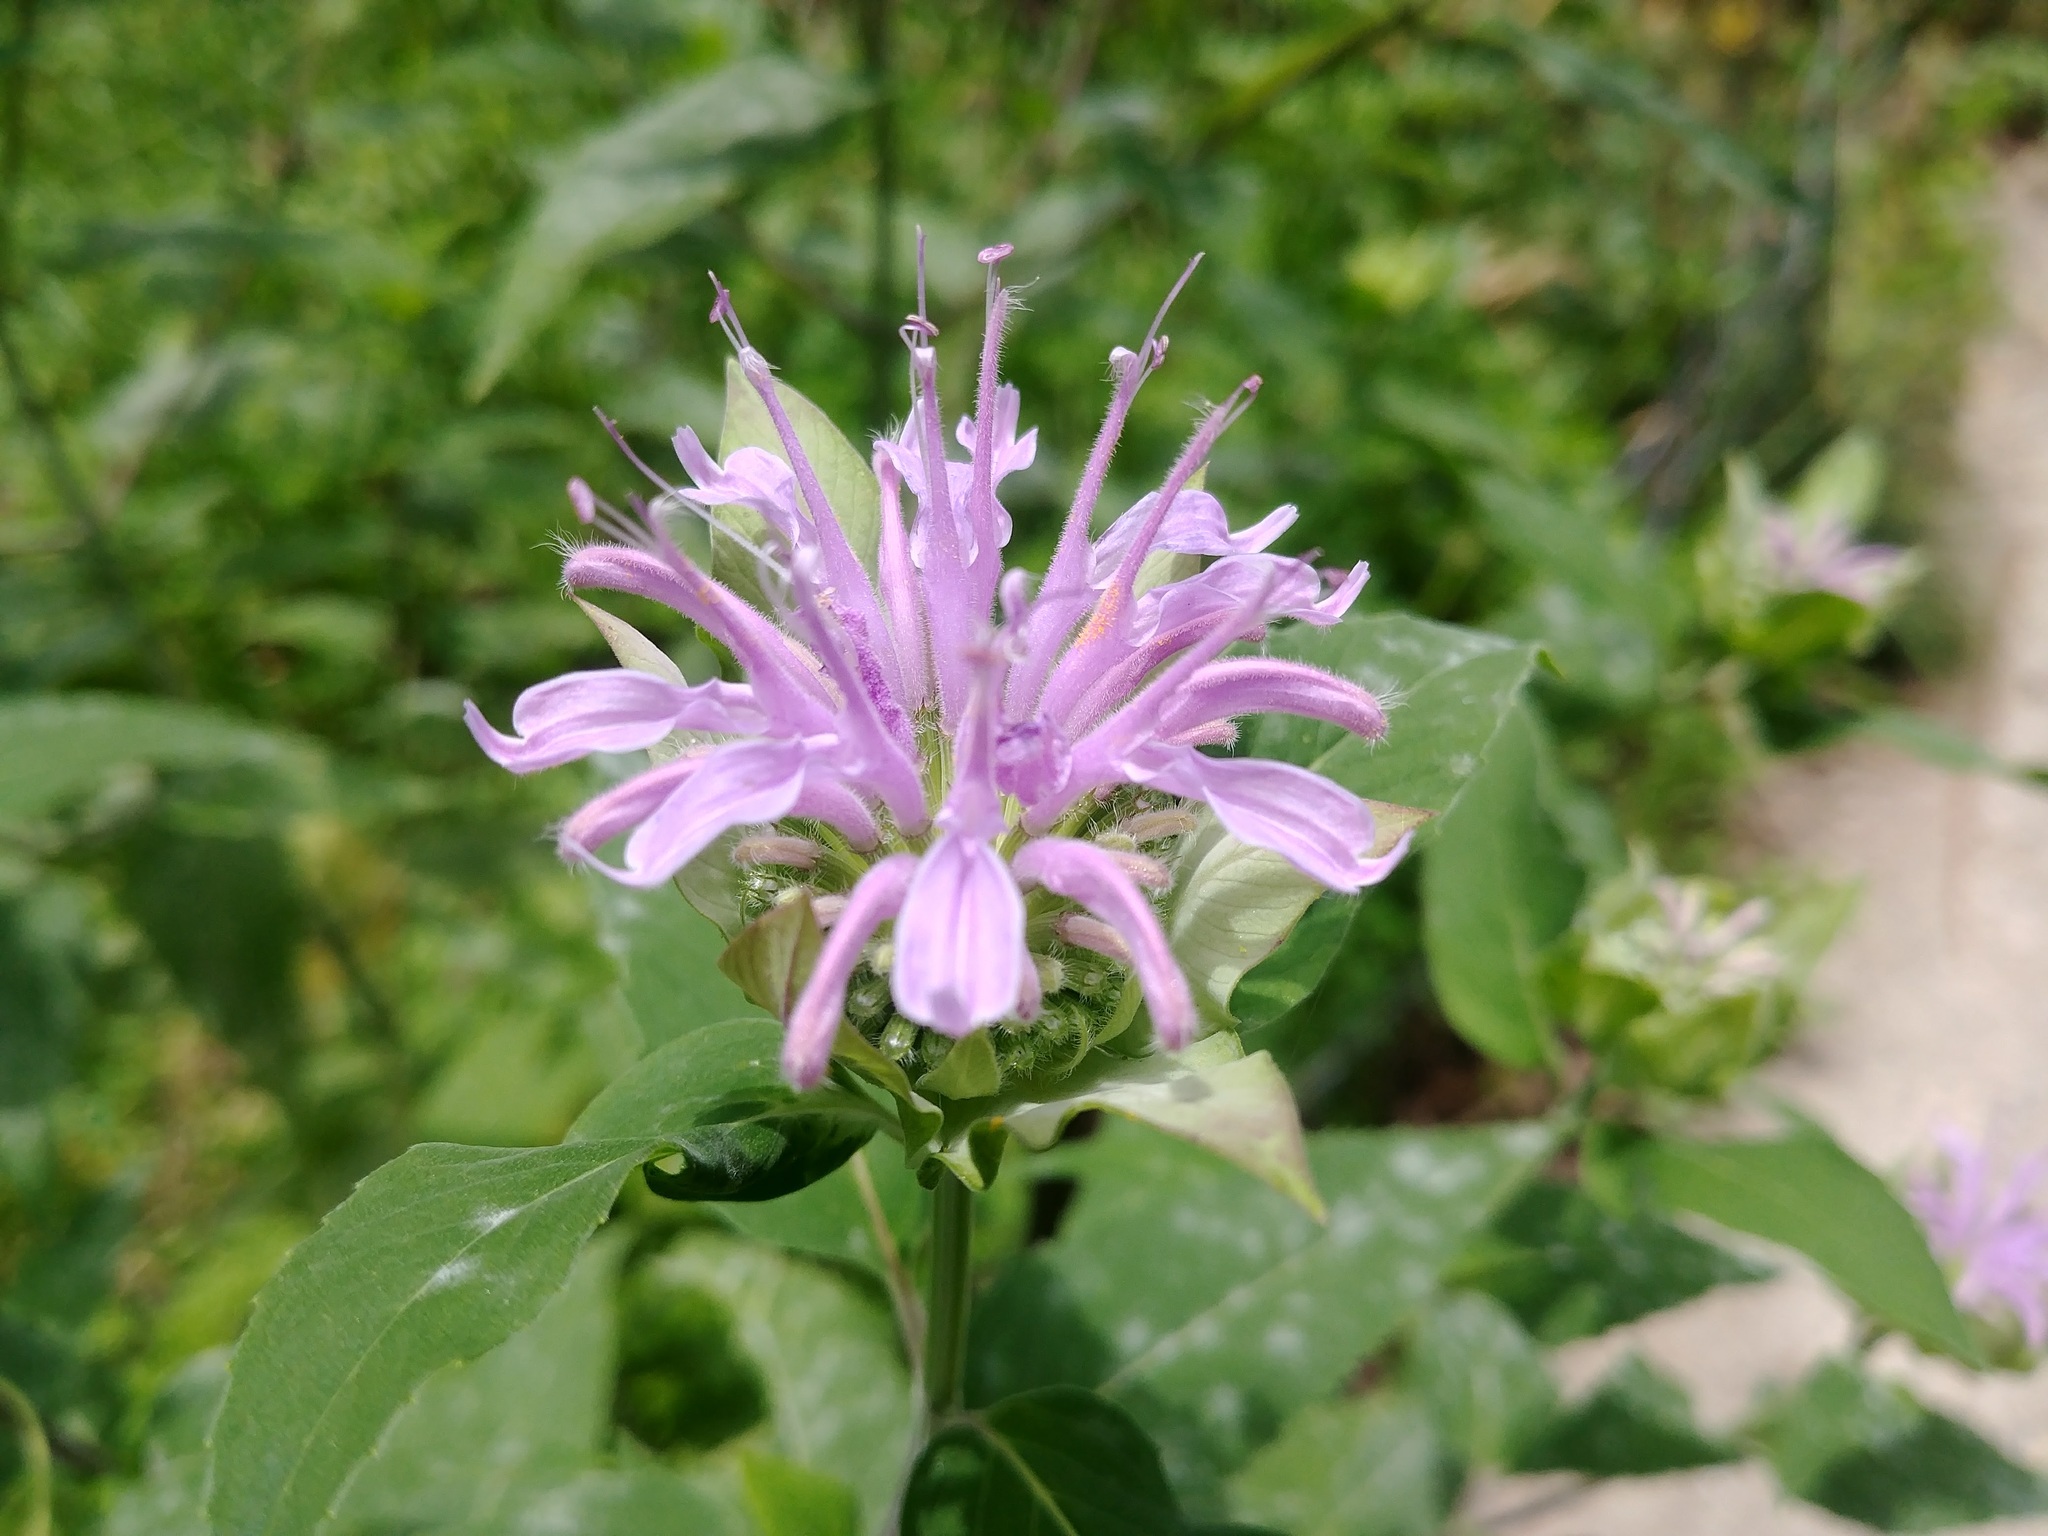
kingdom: Plantae
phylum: Tracheophyta
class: Magnoliopsida
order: Lamiales
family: Lamiaceae
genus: Monarda
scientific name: Monarda fistulosa
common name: Purple beebalm
